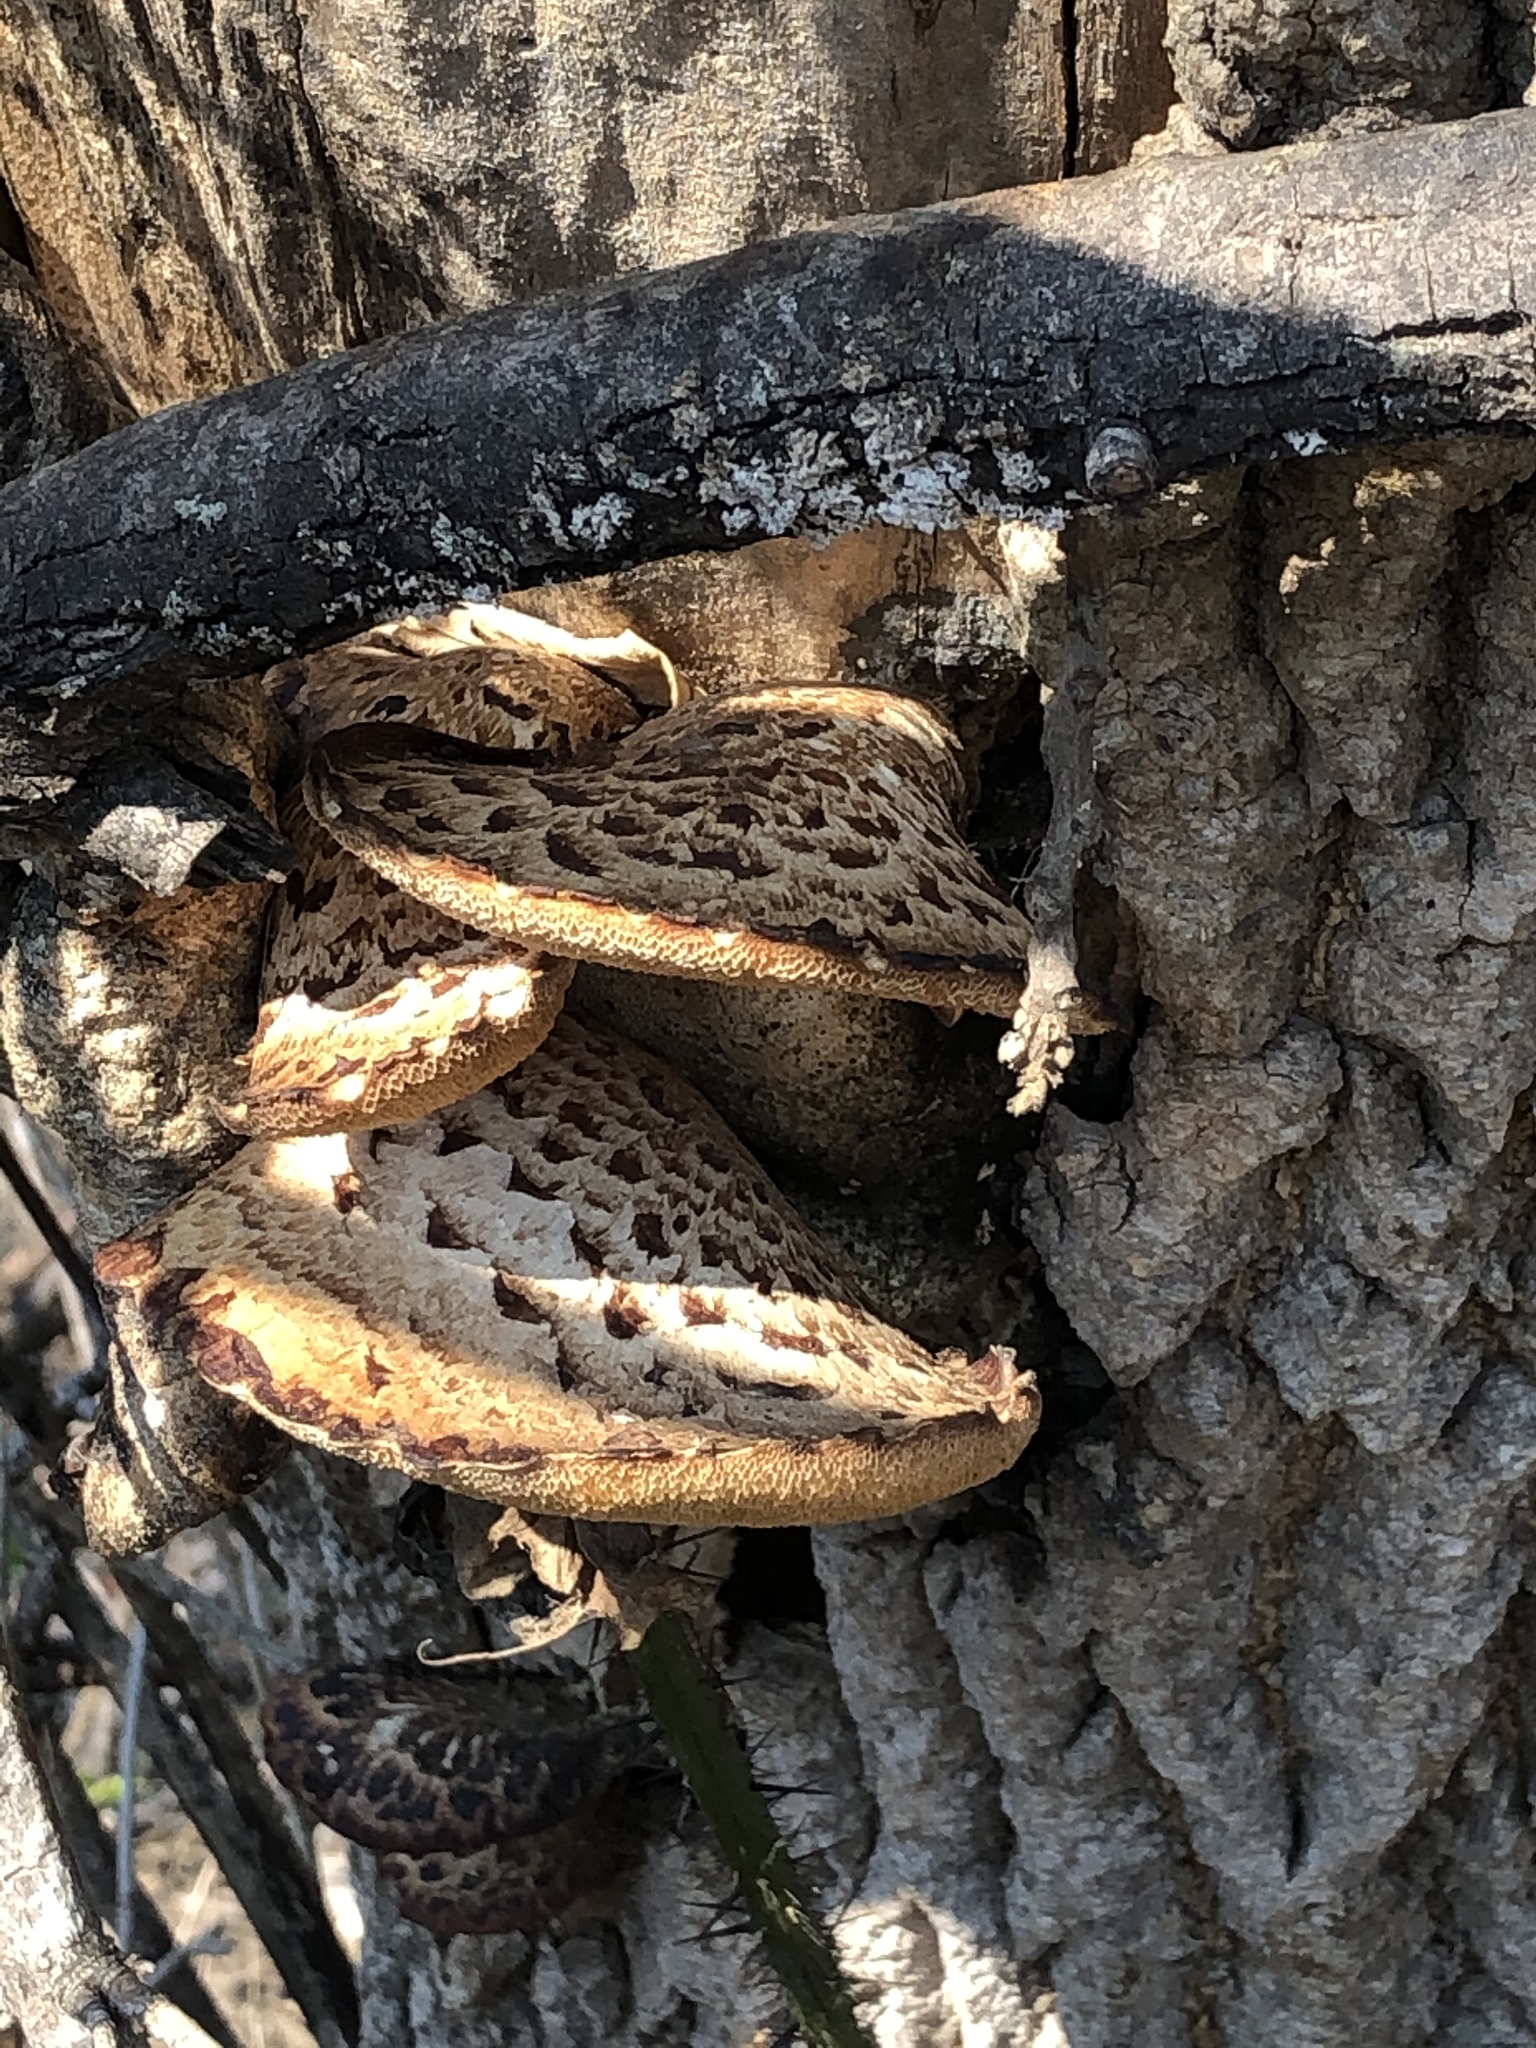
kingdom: Fungi
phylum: Basidiomycota
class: Agaricomycetes
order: Polyporales
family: Polyporaceae
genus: Cerioporus
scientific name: Cerioporus squamosus
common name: Dryad's saddle
